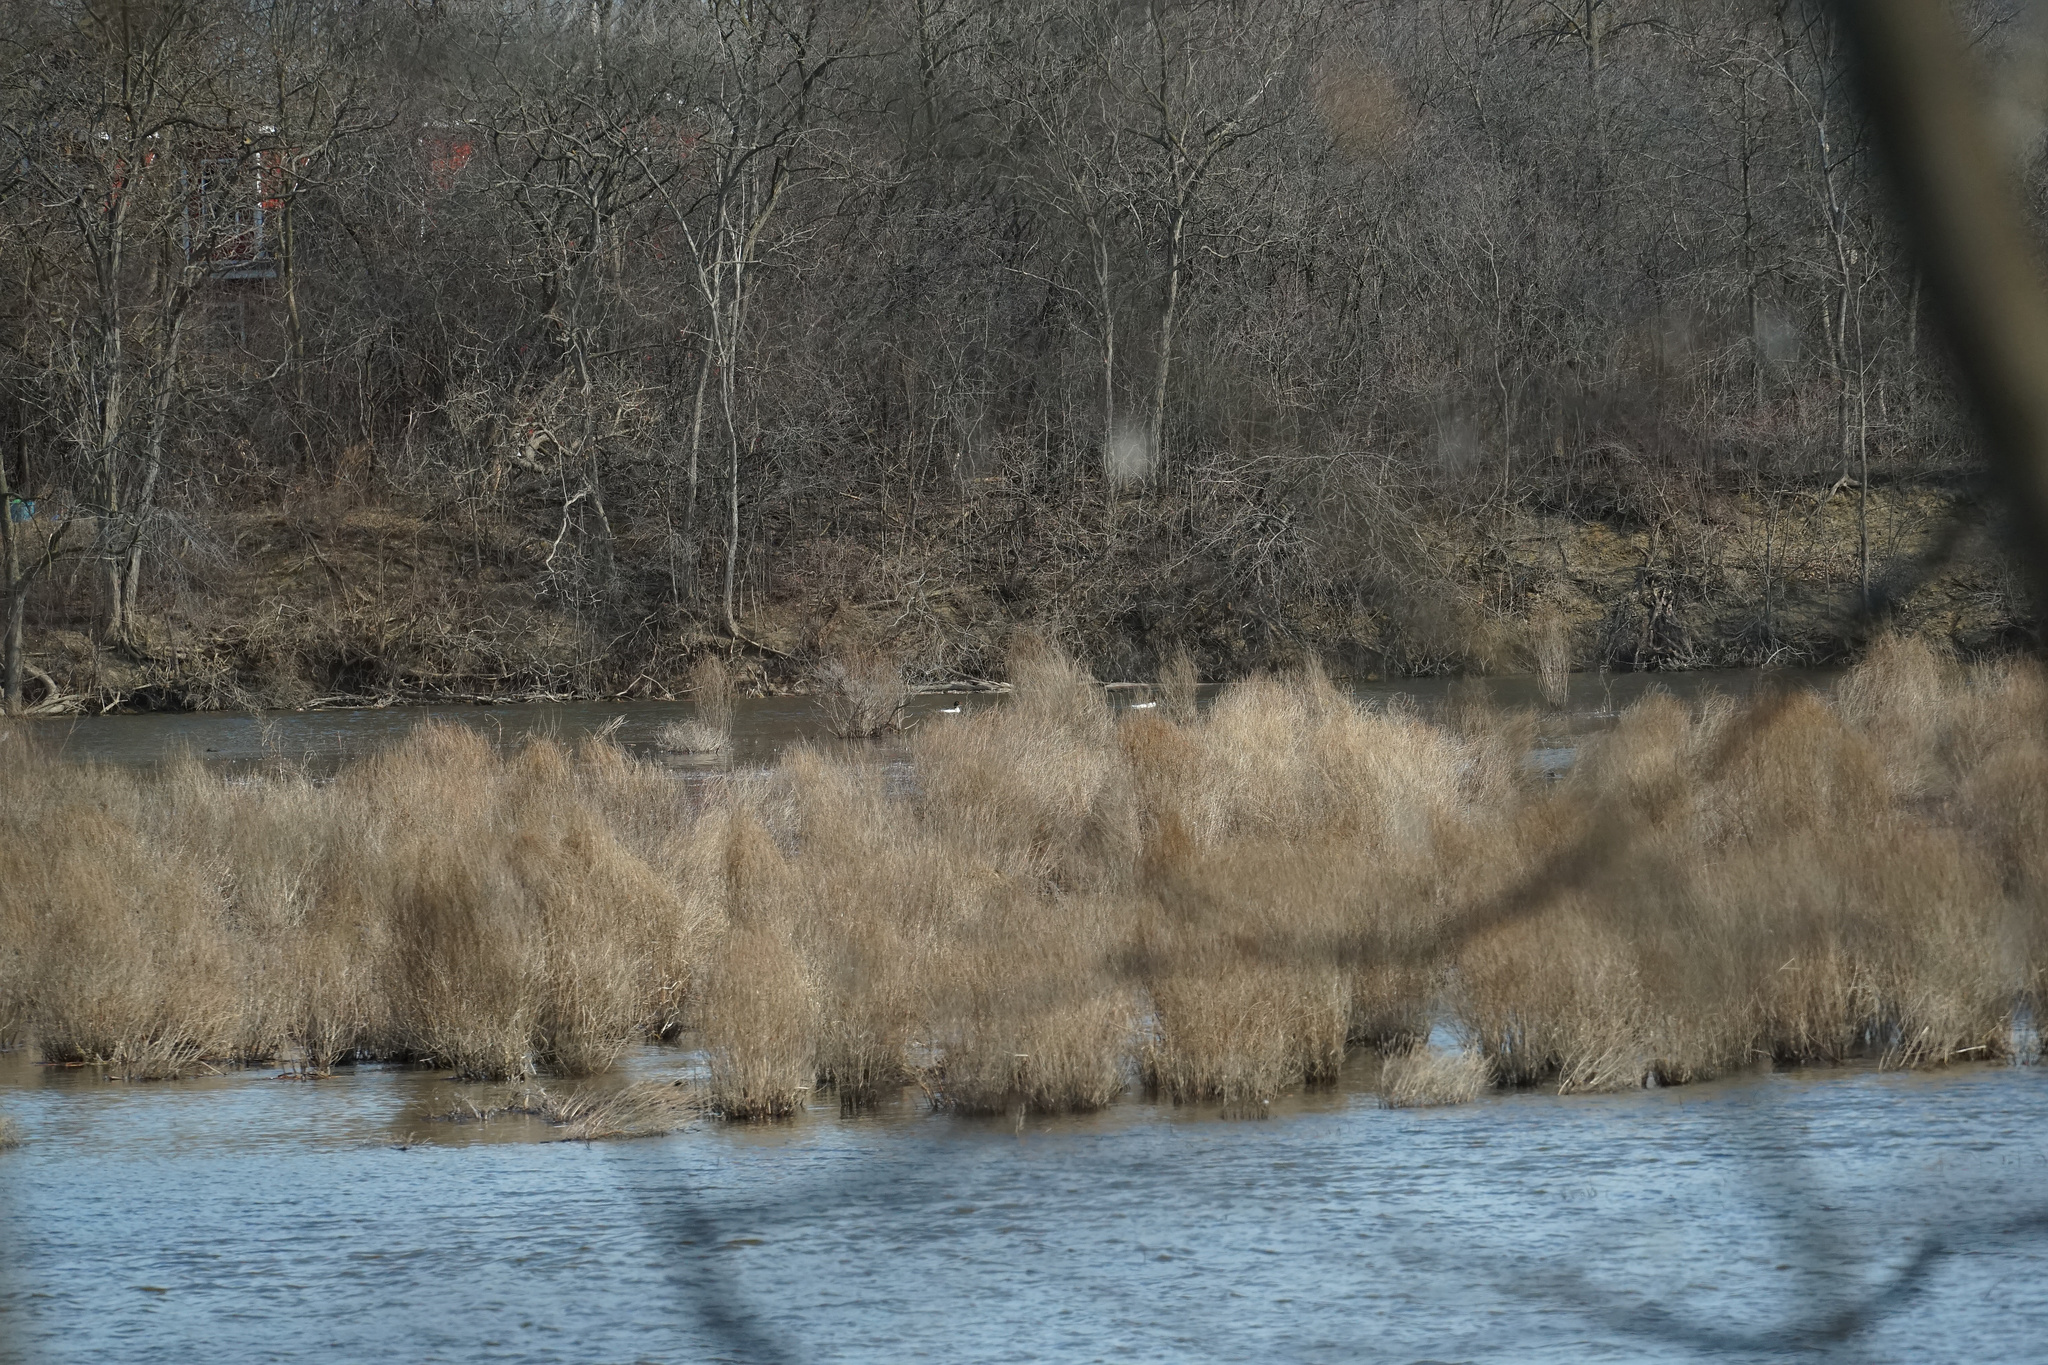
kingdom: Animalia
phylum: Chordata
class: Aves
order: Anseriformes
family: Anatidae
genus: Mergus
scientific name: Mergus merganser
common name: Common merganser
